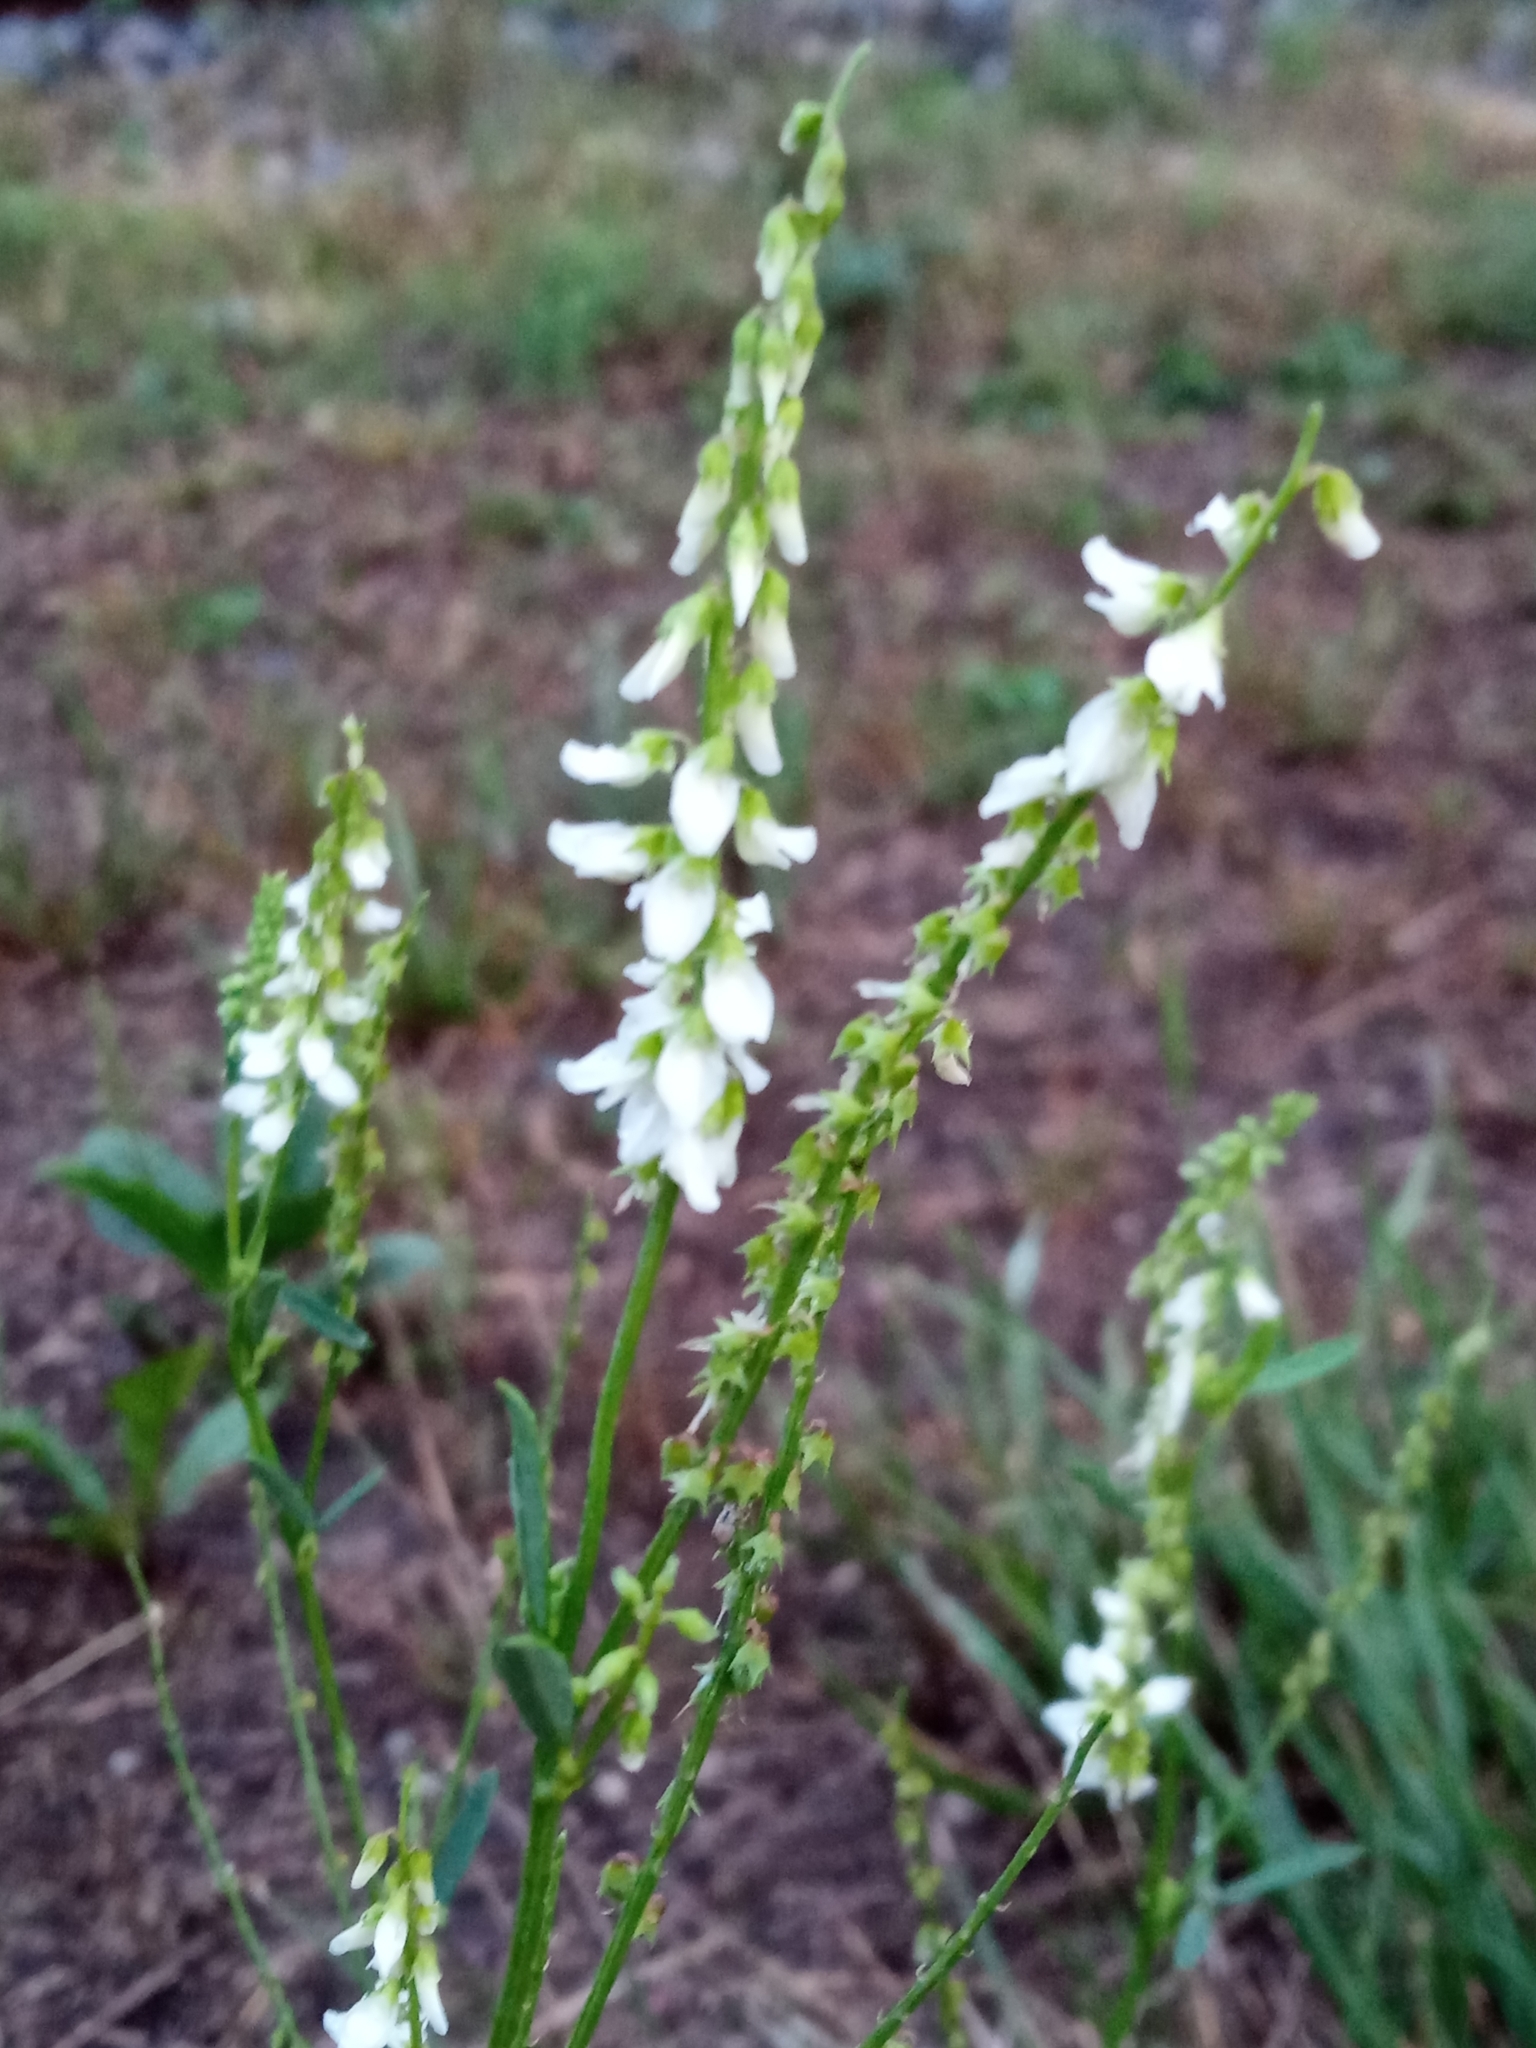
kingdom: Plantae
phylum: Tracheophyta
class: Magnoliopsida
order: Fabales
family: Fabaceae
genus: Melilotus
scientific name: Melilotus albus
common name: White melilot
